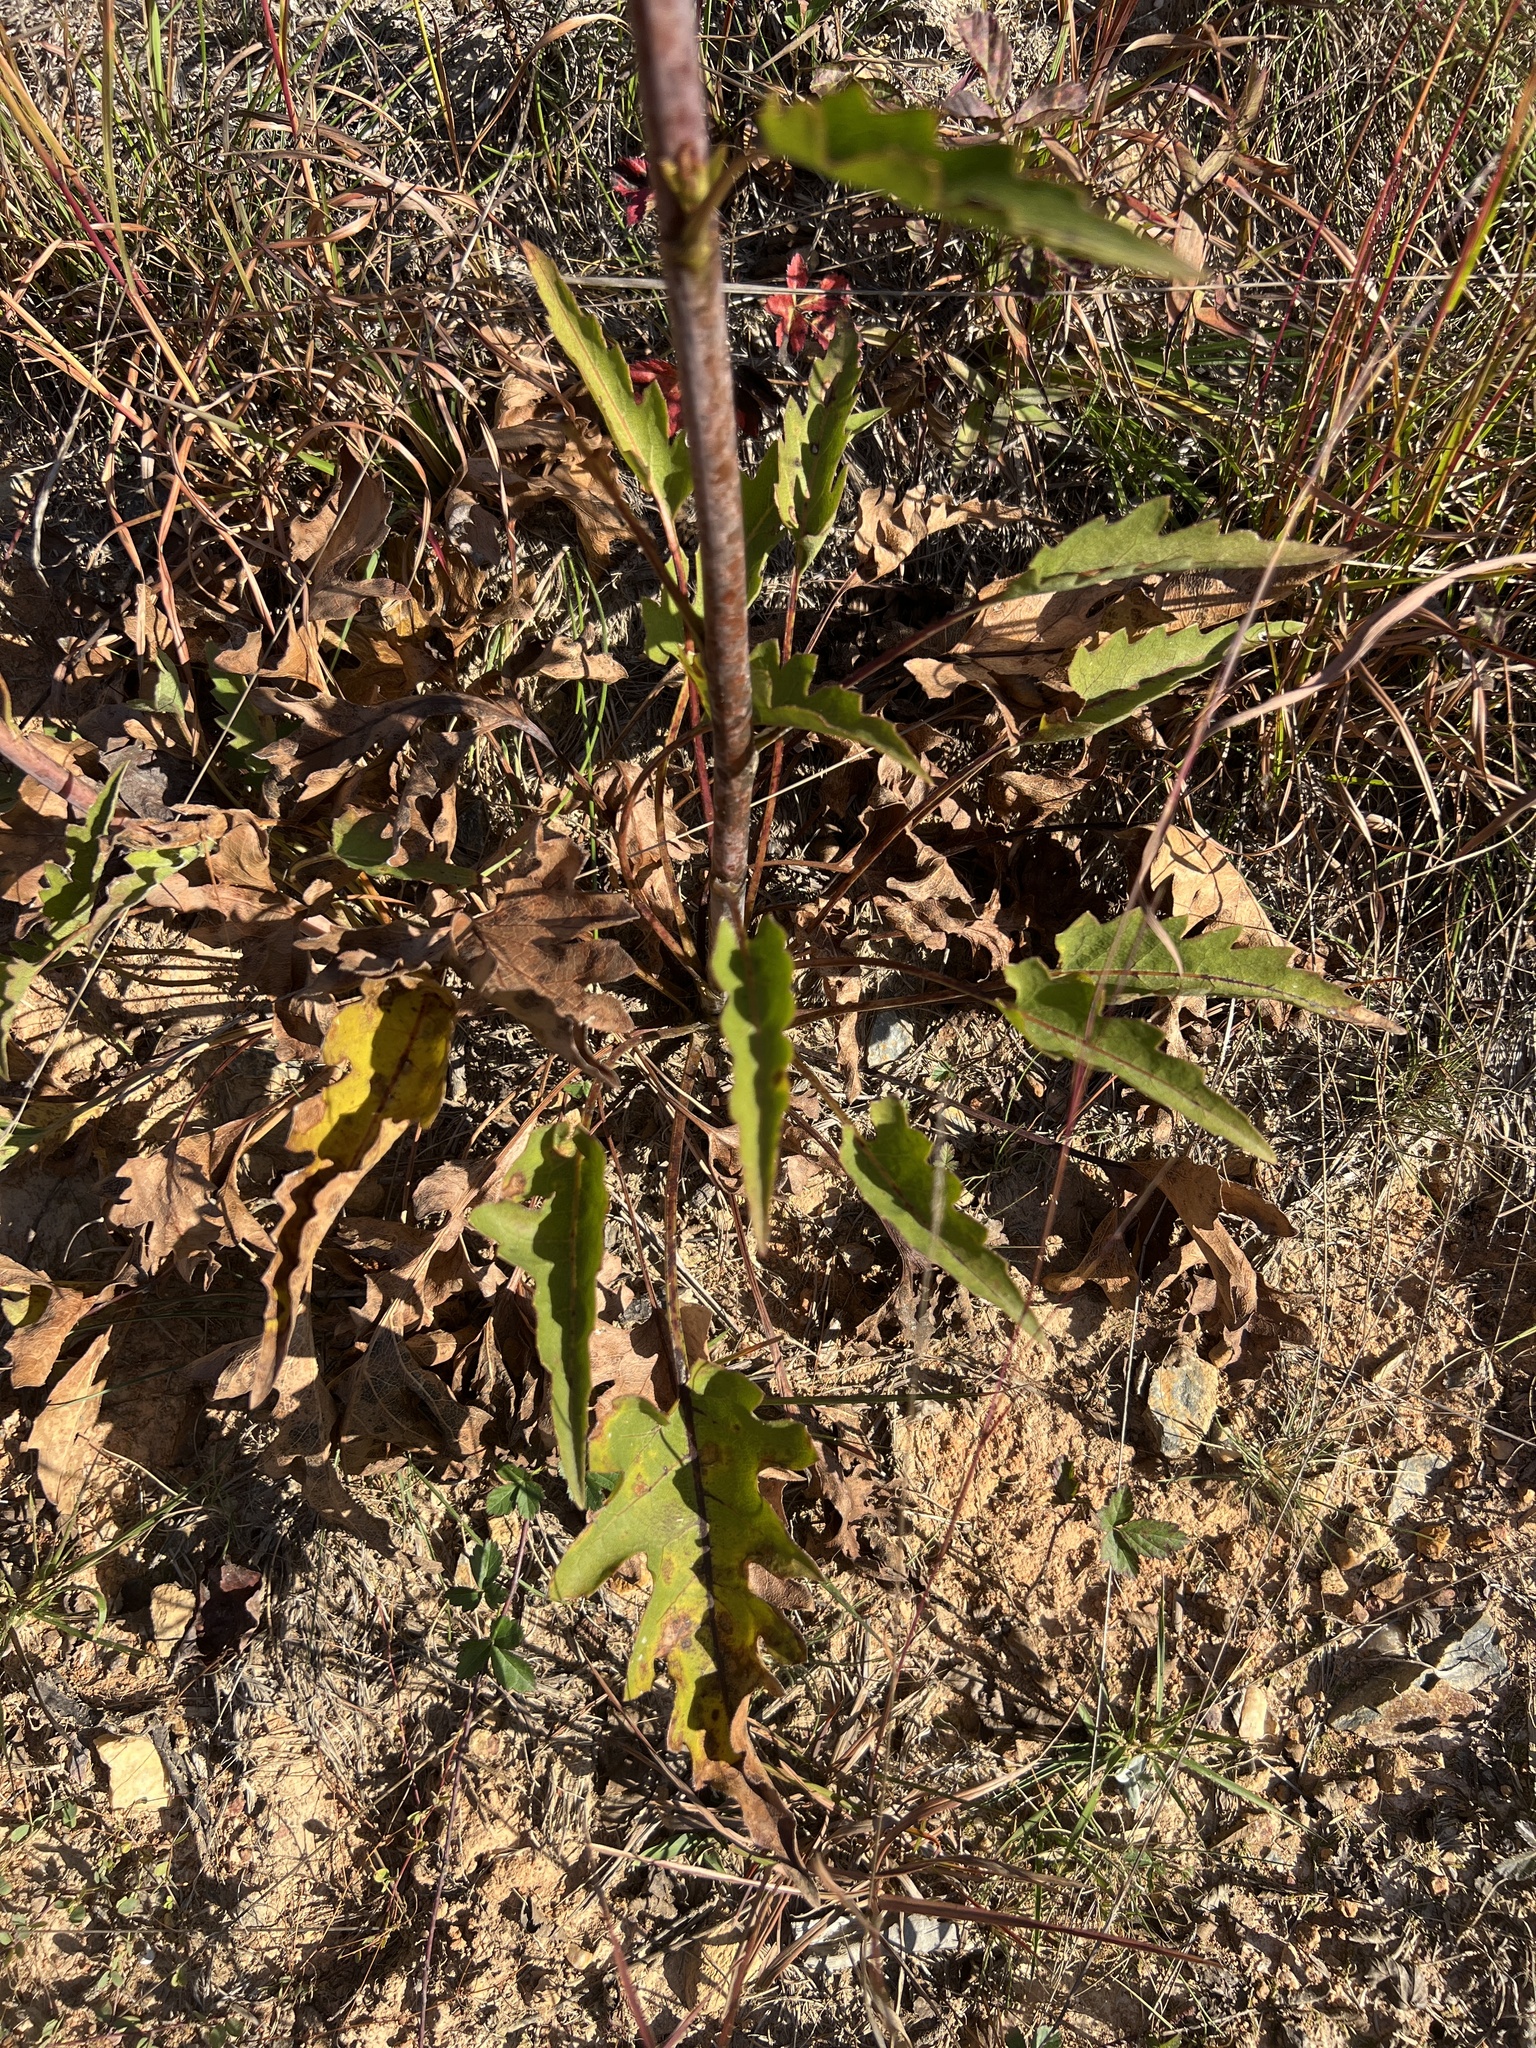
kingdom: Plantae
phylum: Tracheophyta
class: Magnoliopsida
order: Asterales
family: Asteraceae
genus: Silphium
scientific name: Silphium compositum
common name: Lesser basal-leaf rosinweed
